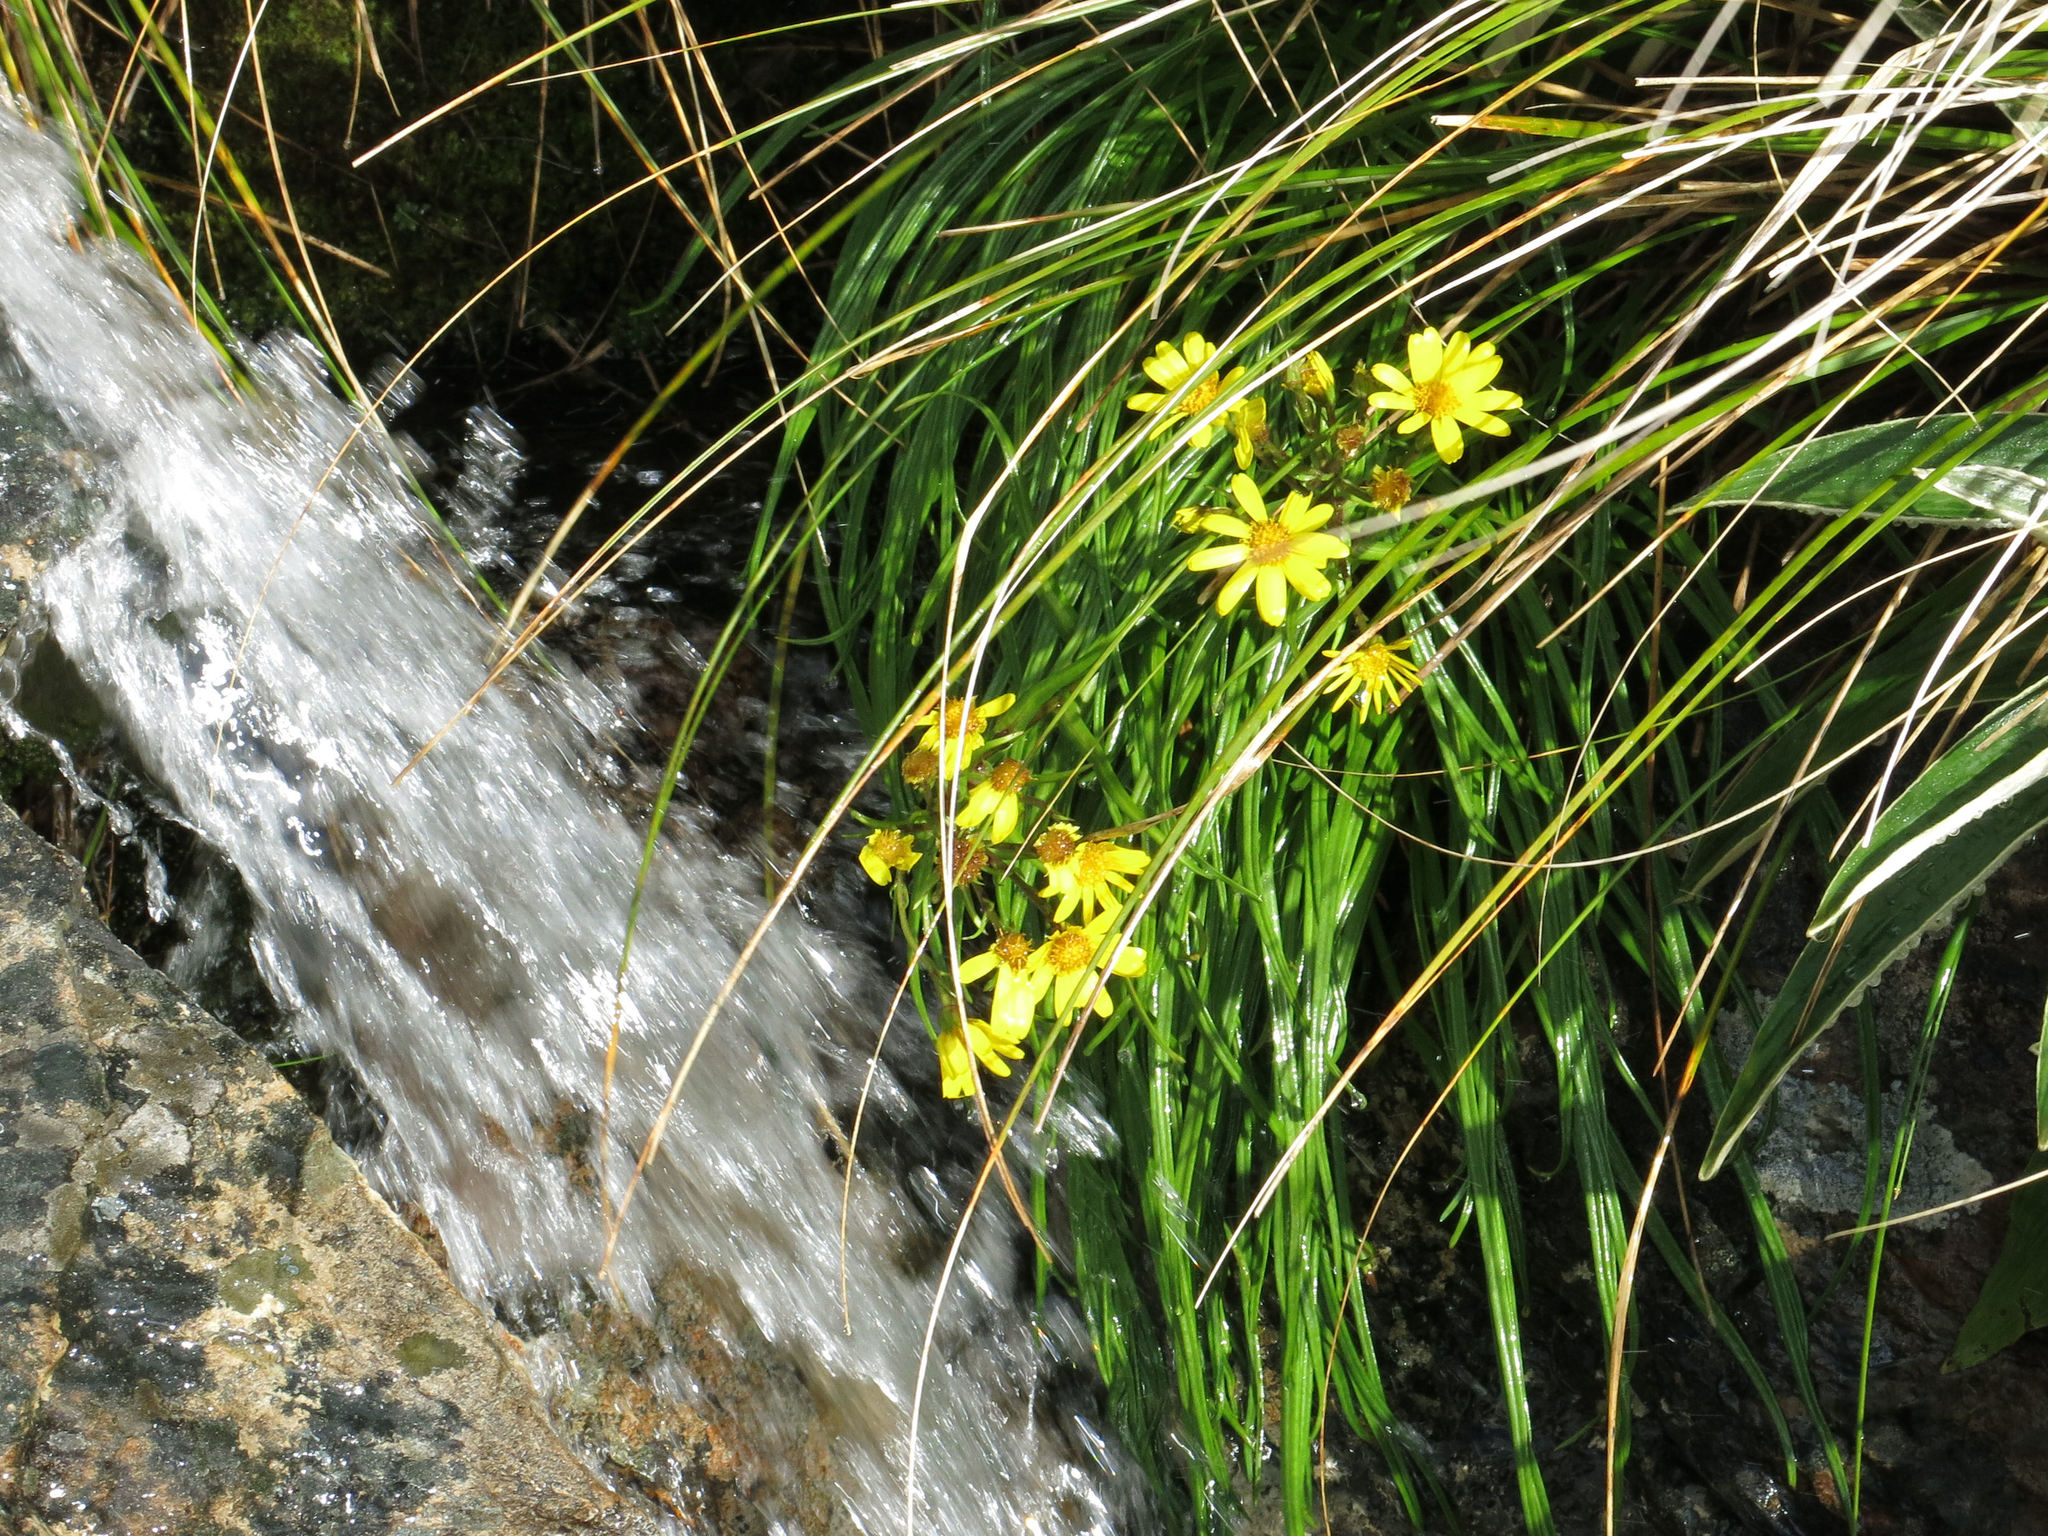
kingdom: Plantae
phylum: Tracheophyta
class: Magnoliopsida
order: Asterales
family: Asteraceae
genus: Dolichoglottis
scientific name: Dolichoglottis lyallii
